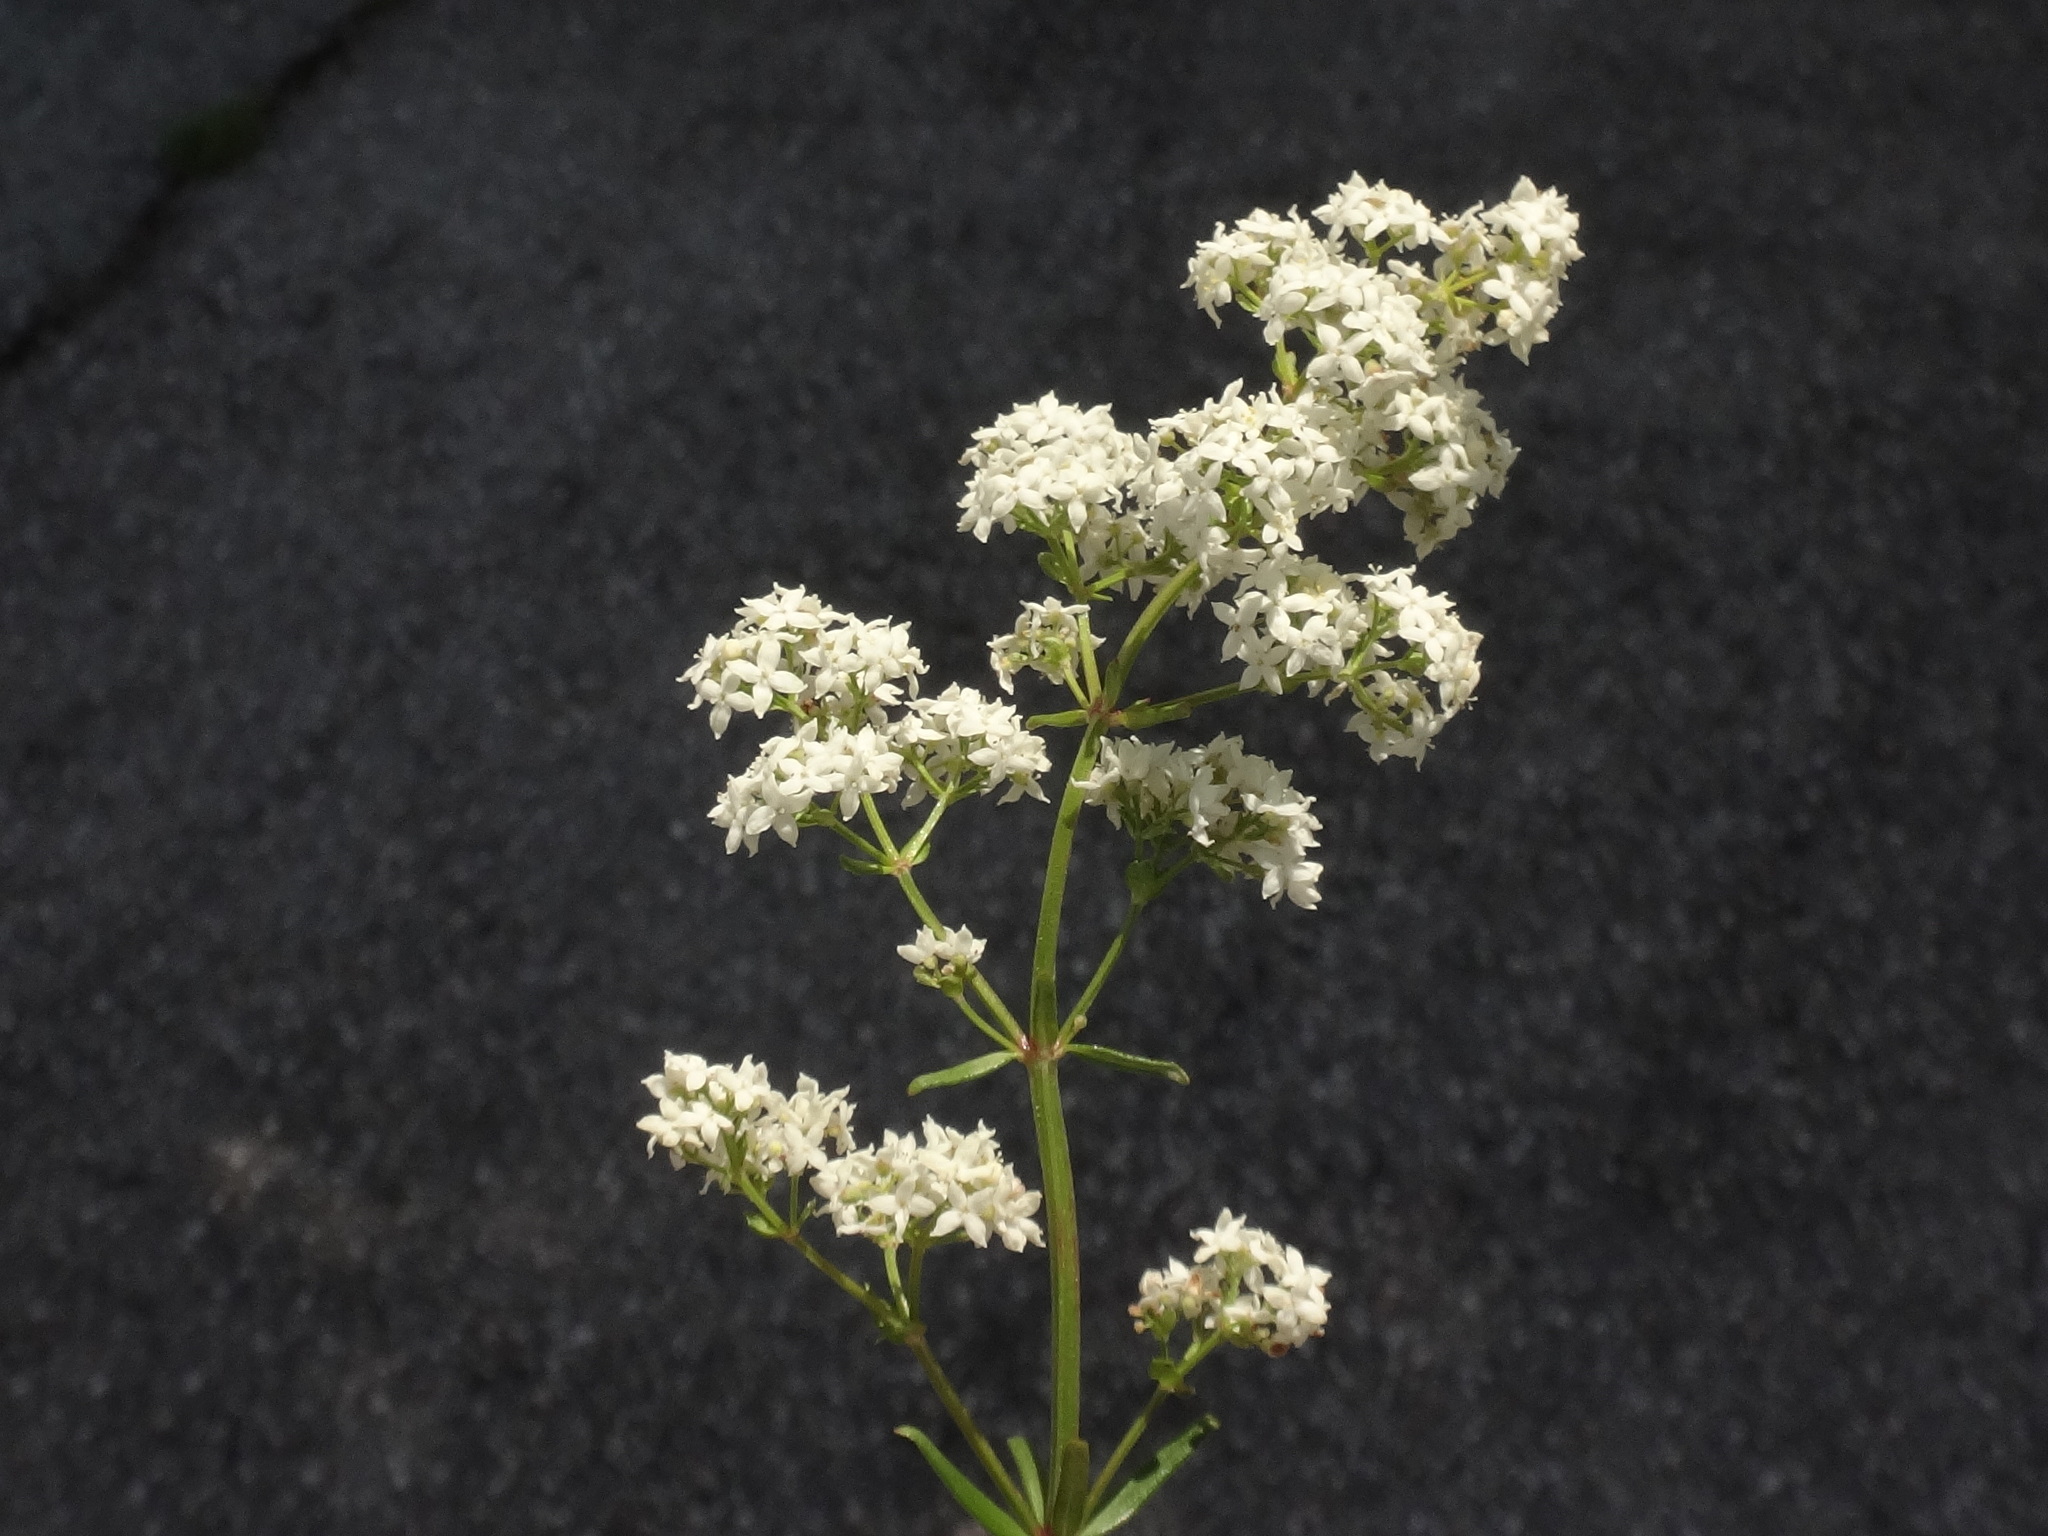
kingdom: Plantae
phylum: Tracheophyta
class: Magnoliopsida
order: Gentianales
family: Rubiaceae
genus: Galium
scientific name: Galium boreale
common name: Northern bedstraw
